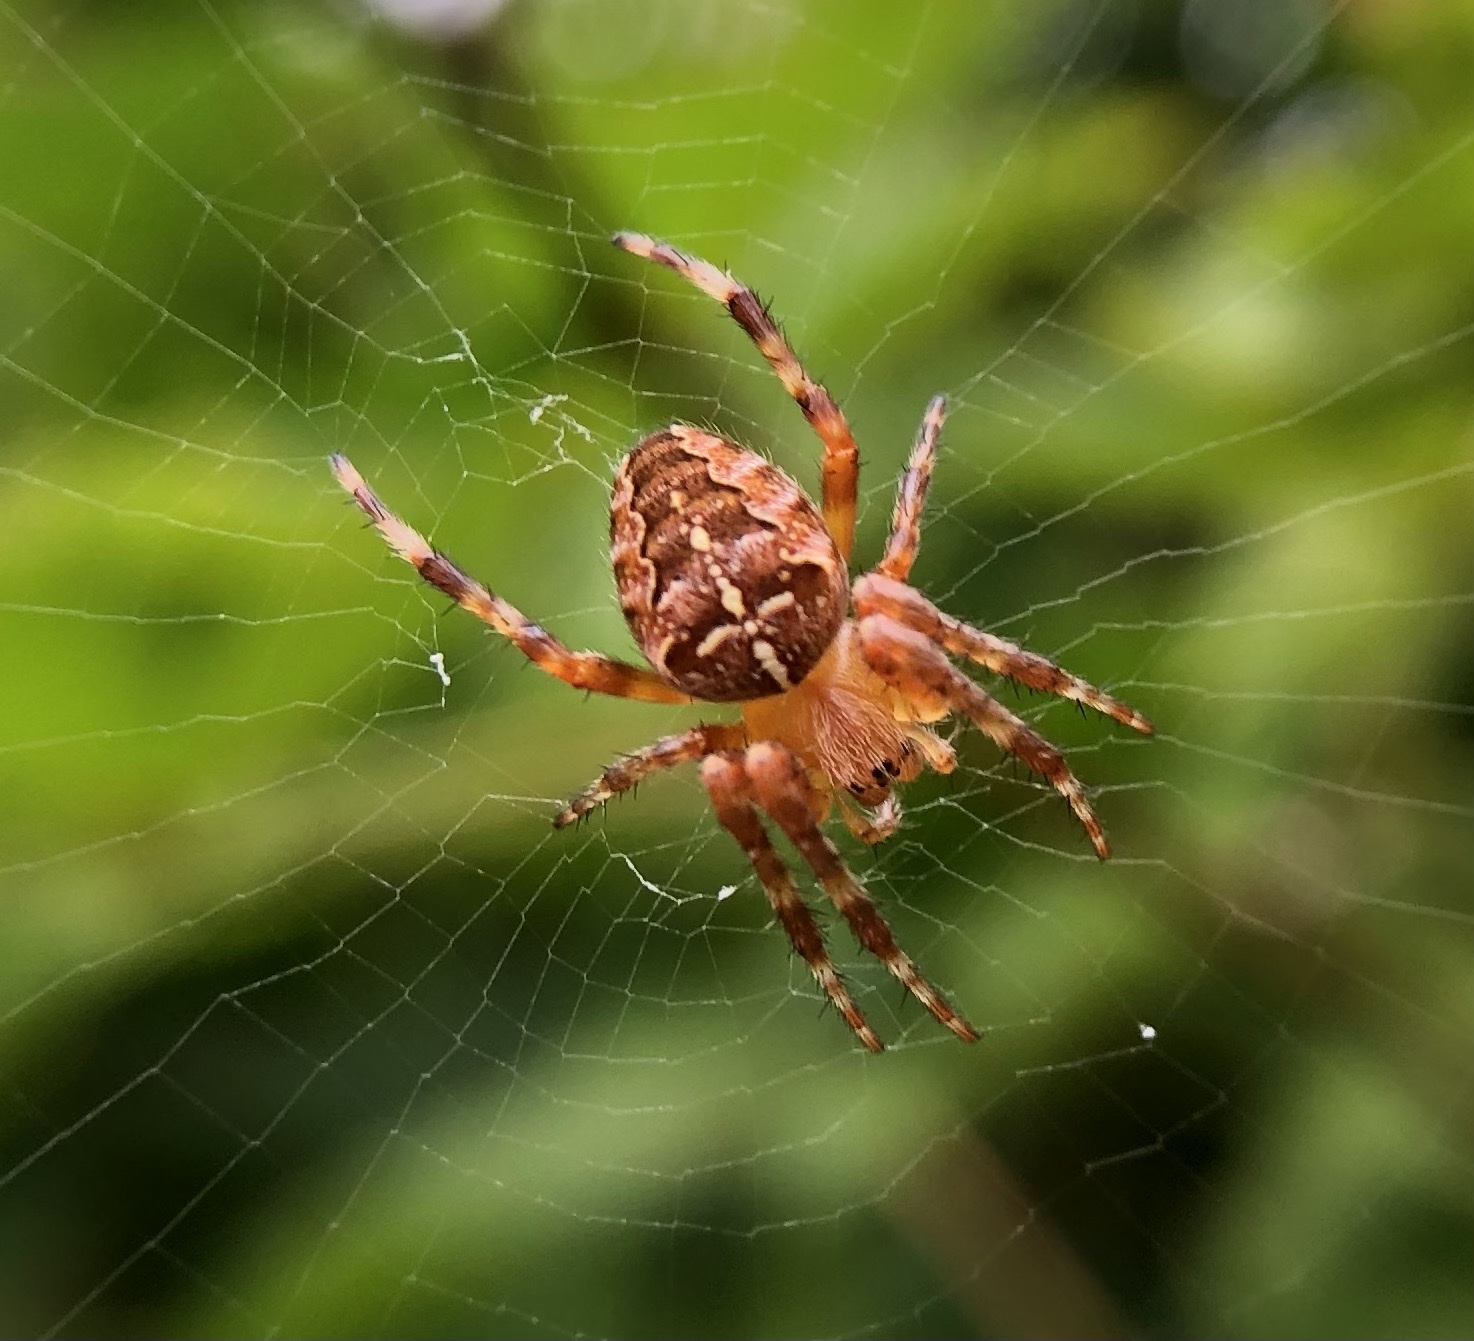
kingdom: Animalia
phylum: Arthropoda
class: Arachnida
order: Araneae
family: Araneidae
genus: Araneus
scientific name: Araneus diadematus
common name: Cross orbweaver
